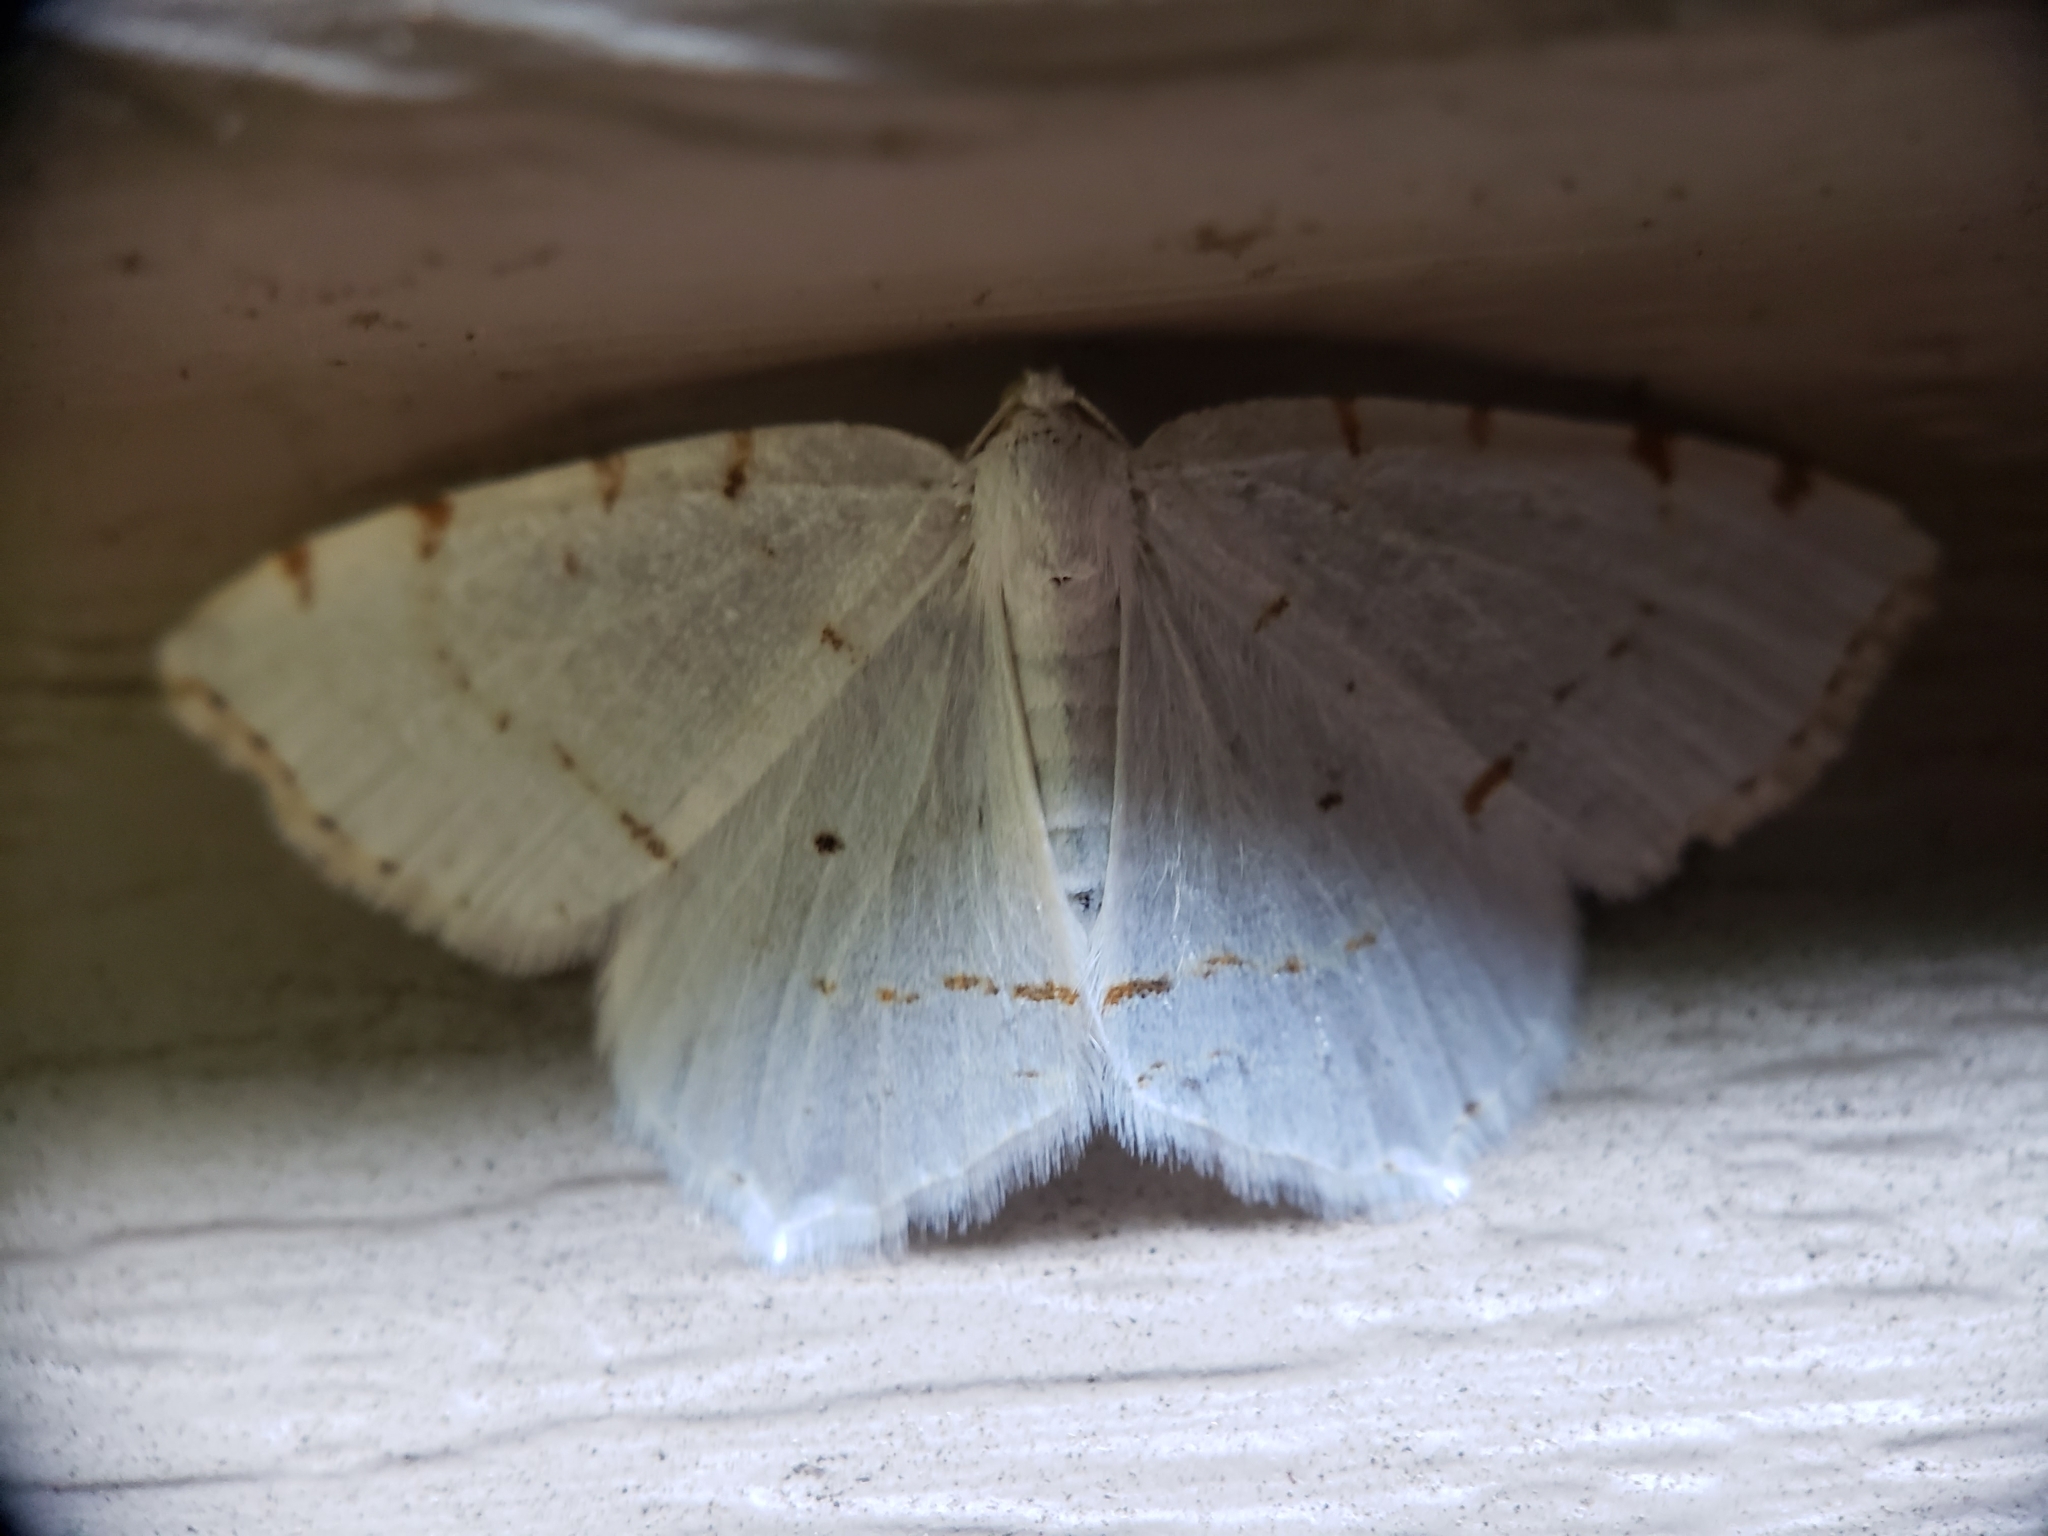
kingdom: Animalia
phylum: Arthropoda
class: Insecta
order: Lepidoptera
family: Geometridae
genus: Macaria
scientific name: Macaria pustularia
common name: Lesser maple spanworm moth
